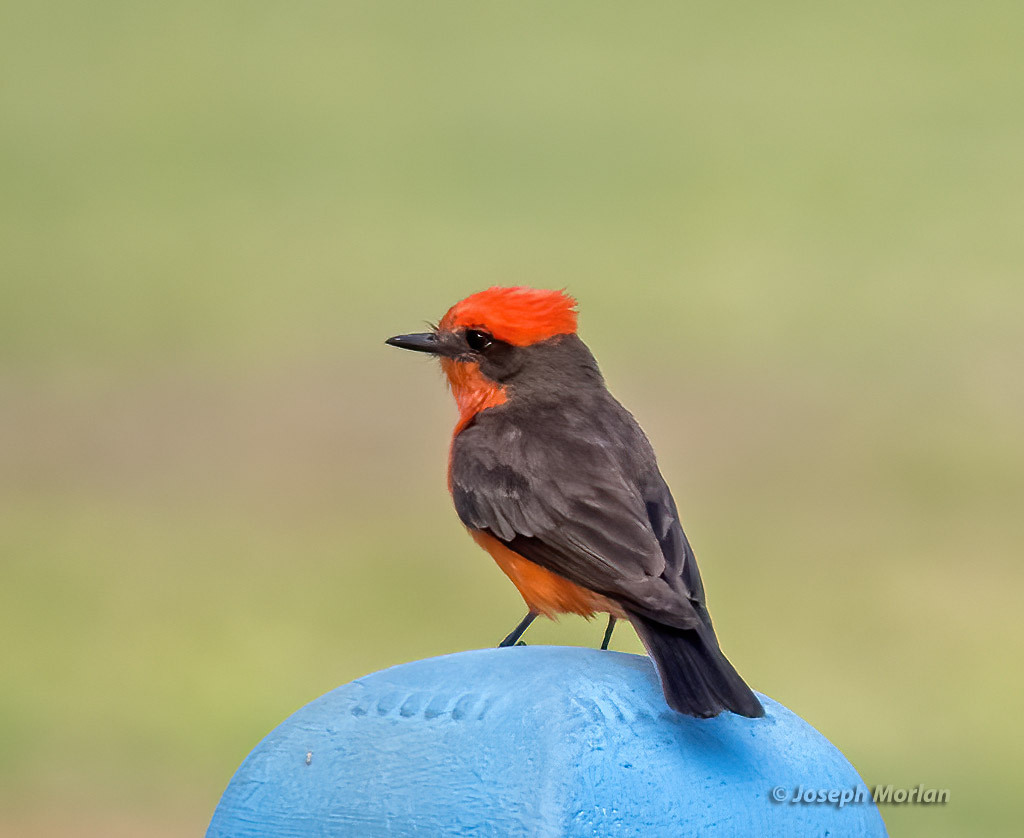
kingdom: Animalia
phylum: Chordata
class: Aves
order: Passeriformes
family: Tyrannidae
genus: Pyrocephalus
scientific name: Pyrocephalus rubinus
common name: Vermilion flycatcher
